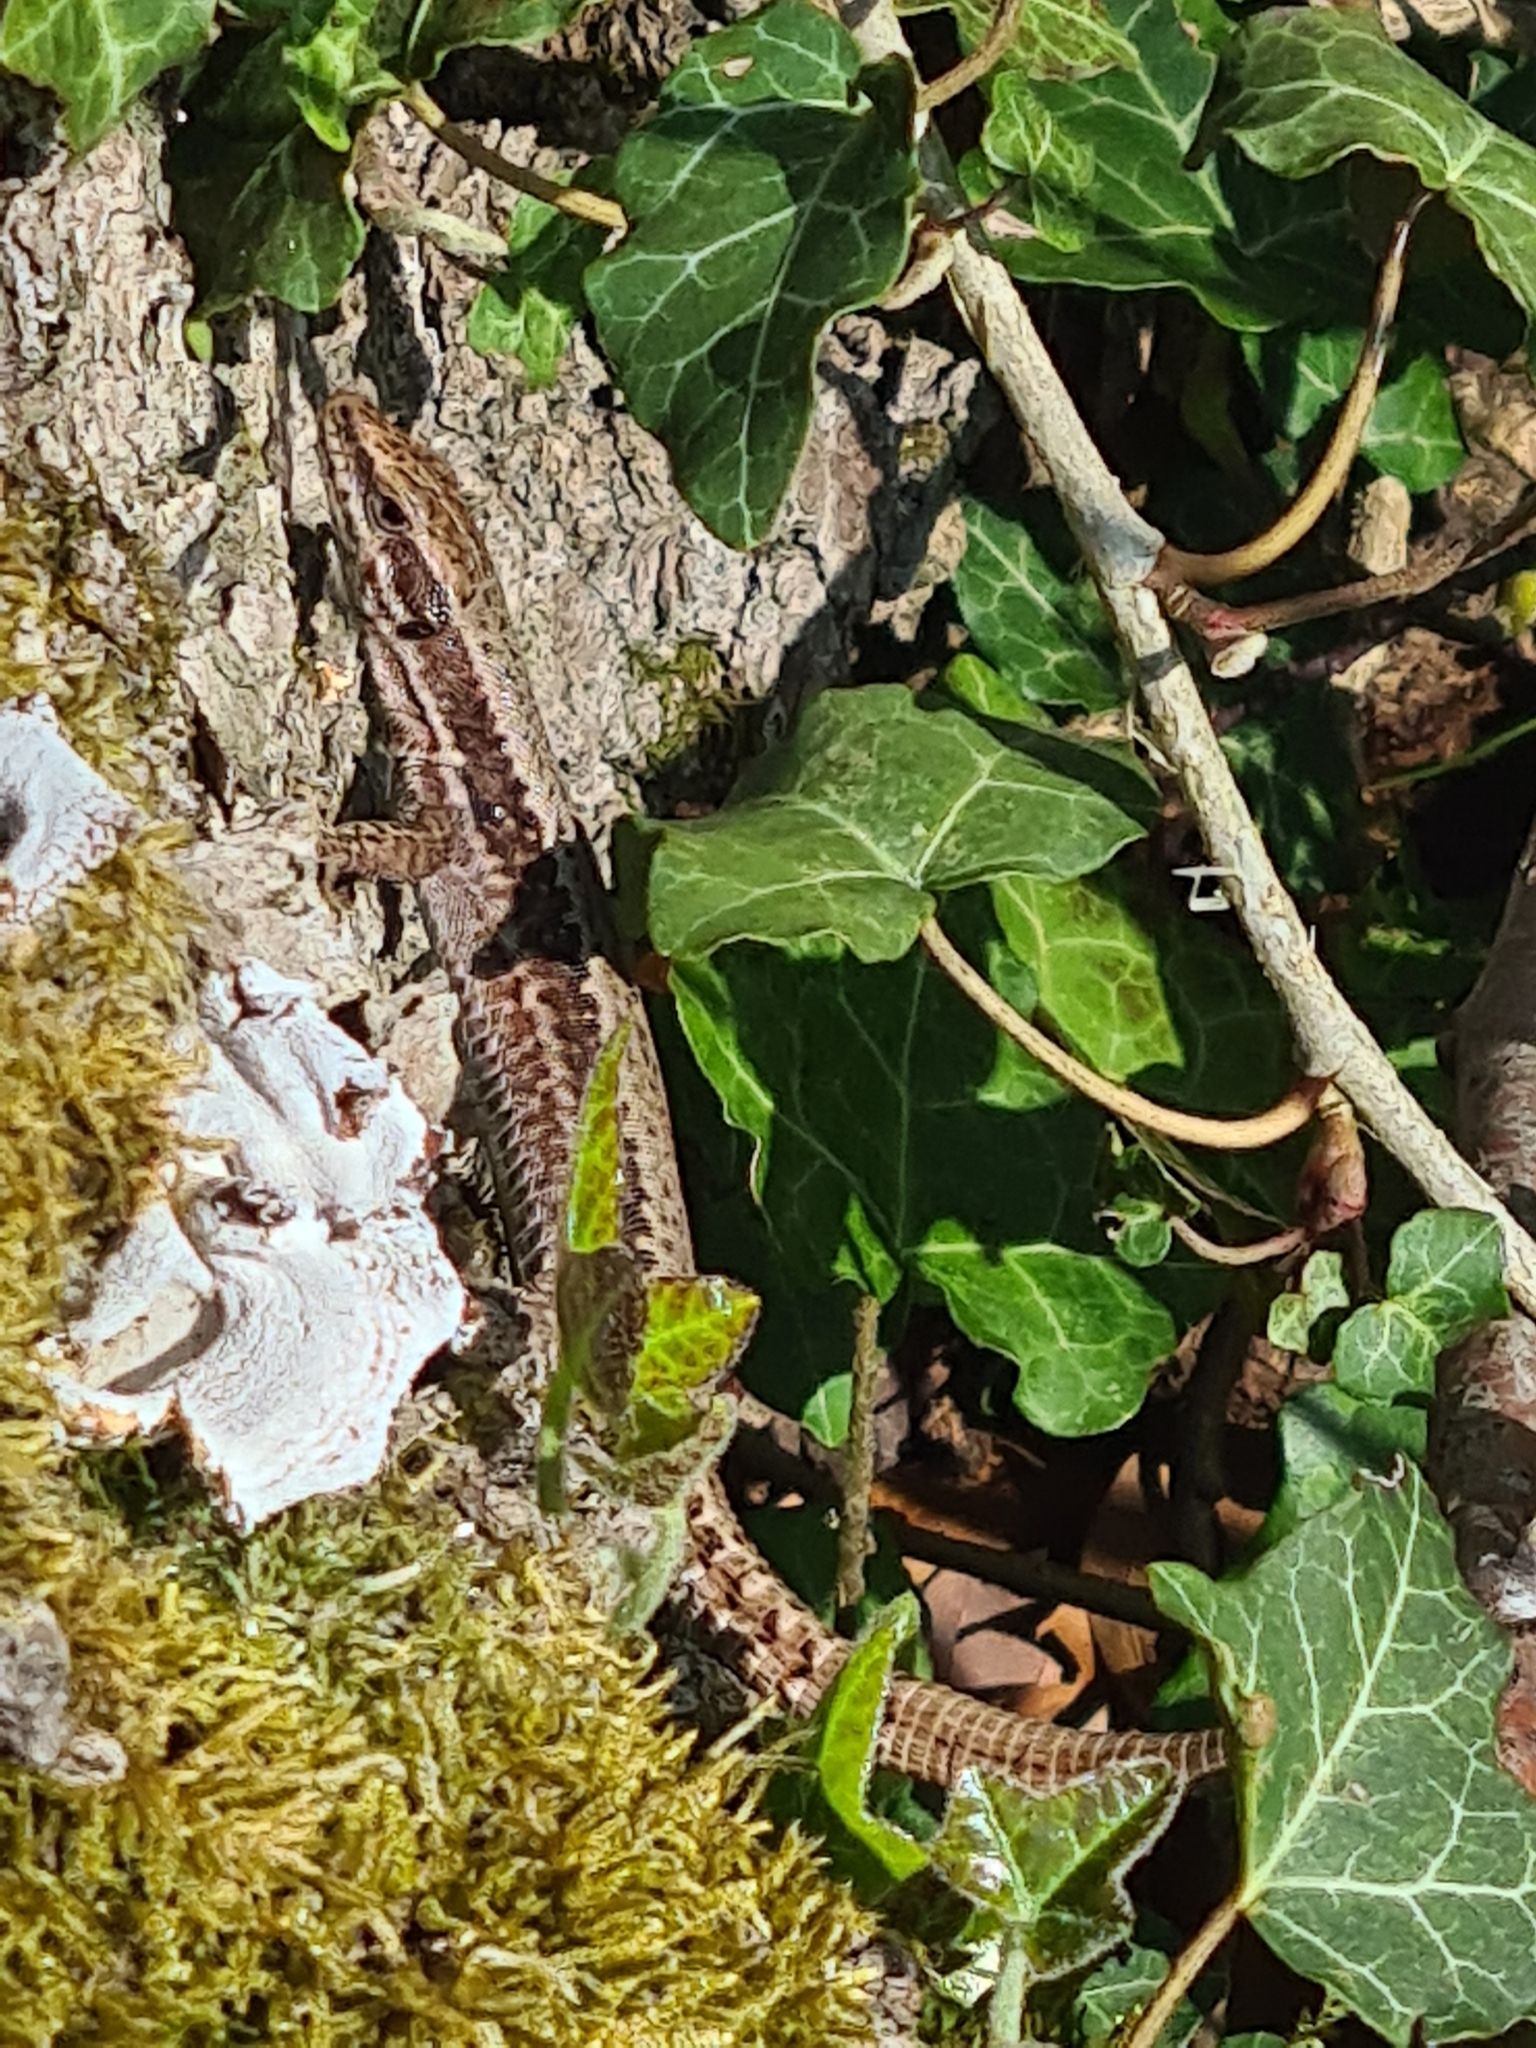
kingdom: Animalia
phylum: Chordata
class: Squamata
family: Lacertidae
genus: Podarcis
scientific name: Podarcis muralis
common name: Common wall lizard
